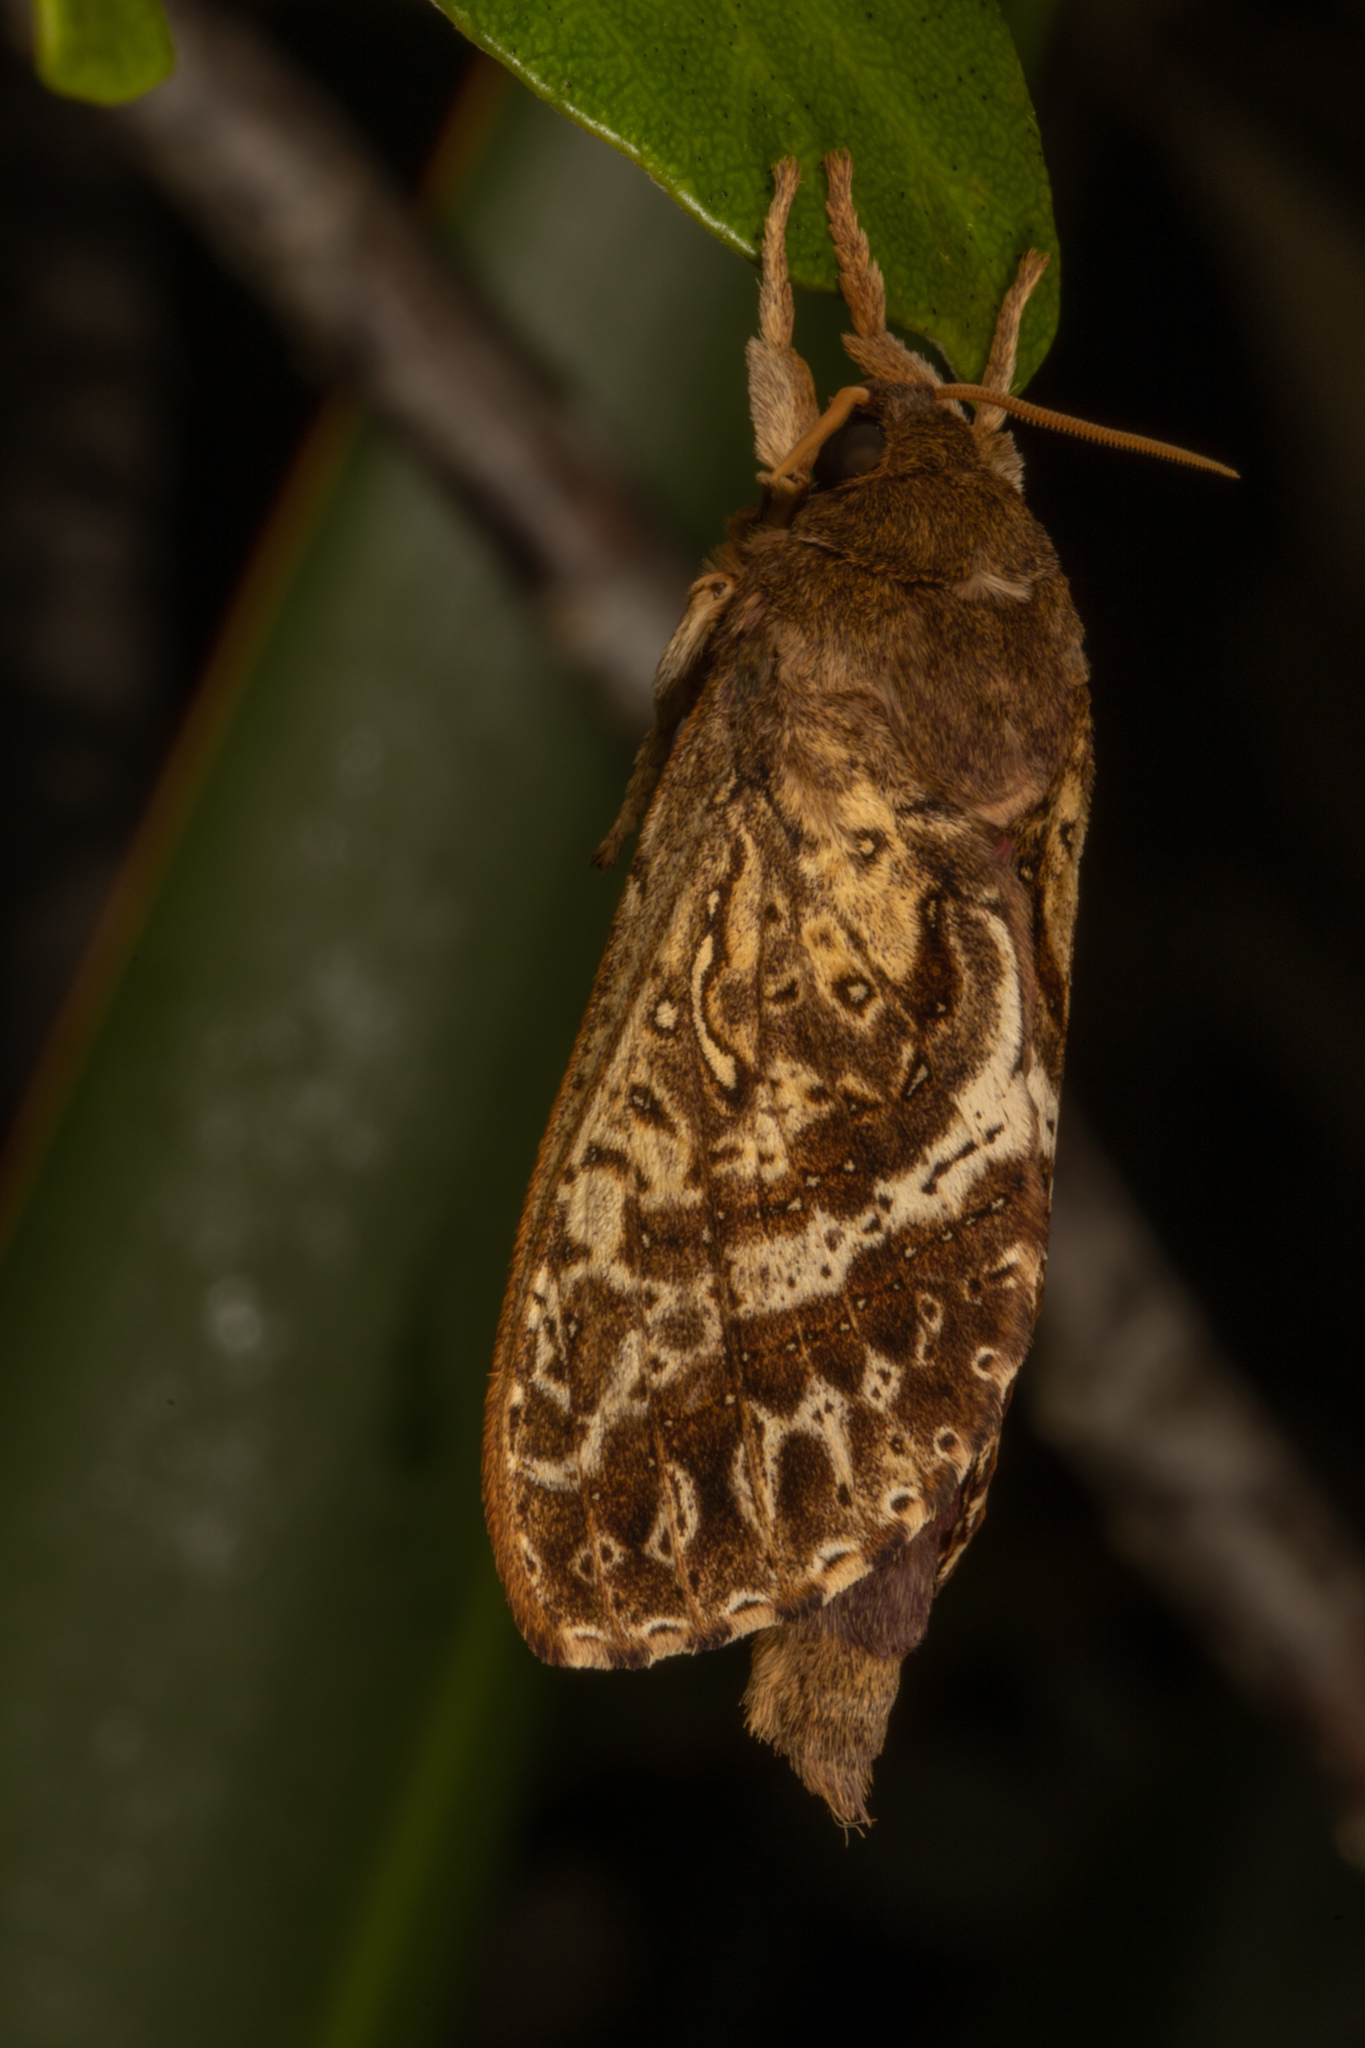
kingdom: Animalia
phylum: Arthropoda
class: Insecta
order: Lepidoptera
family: Hepialidae
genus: Dumbletonius
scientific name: Dumbletonius unimaculata
